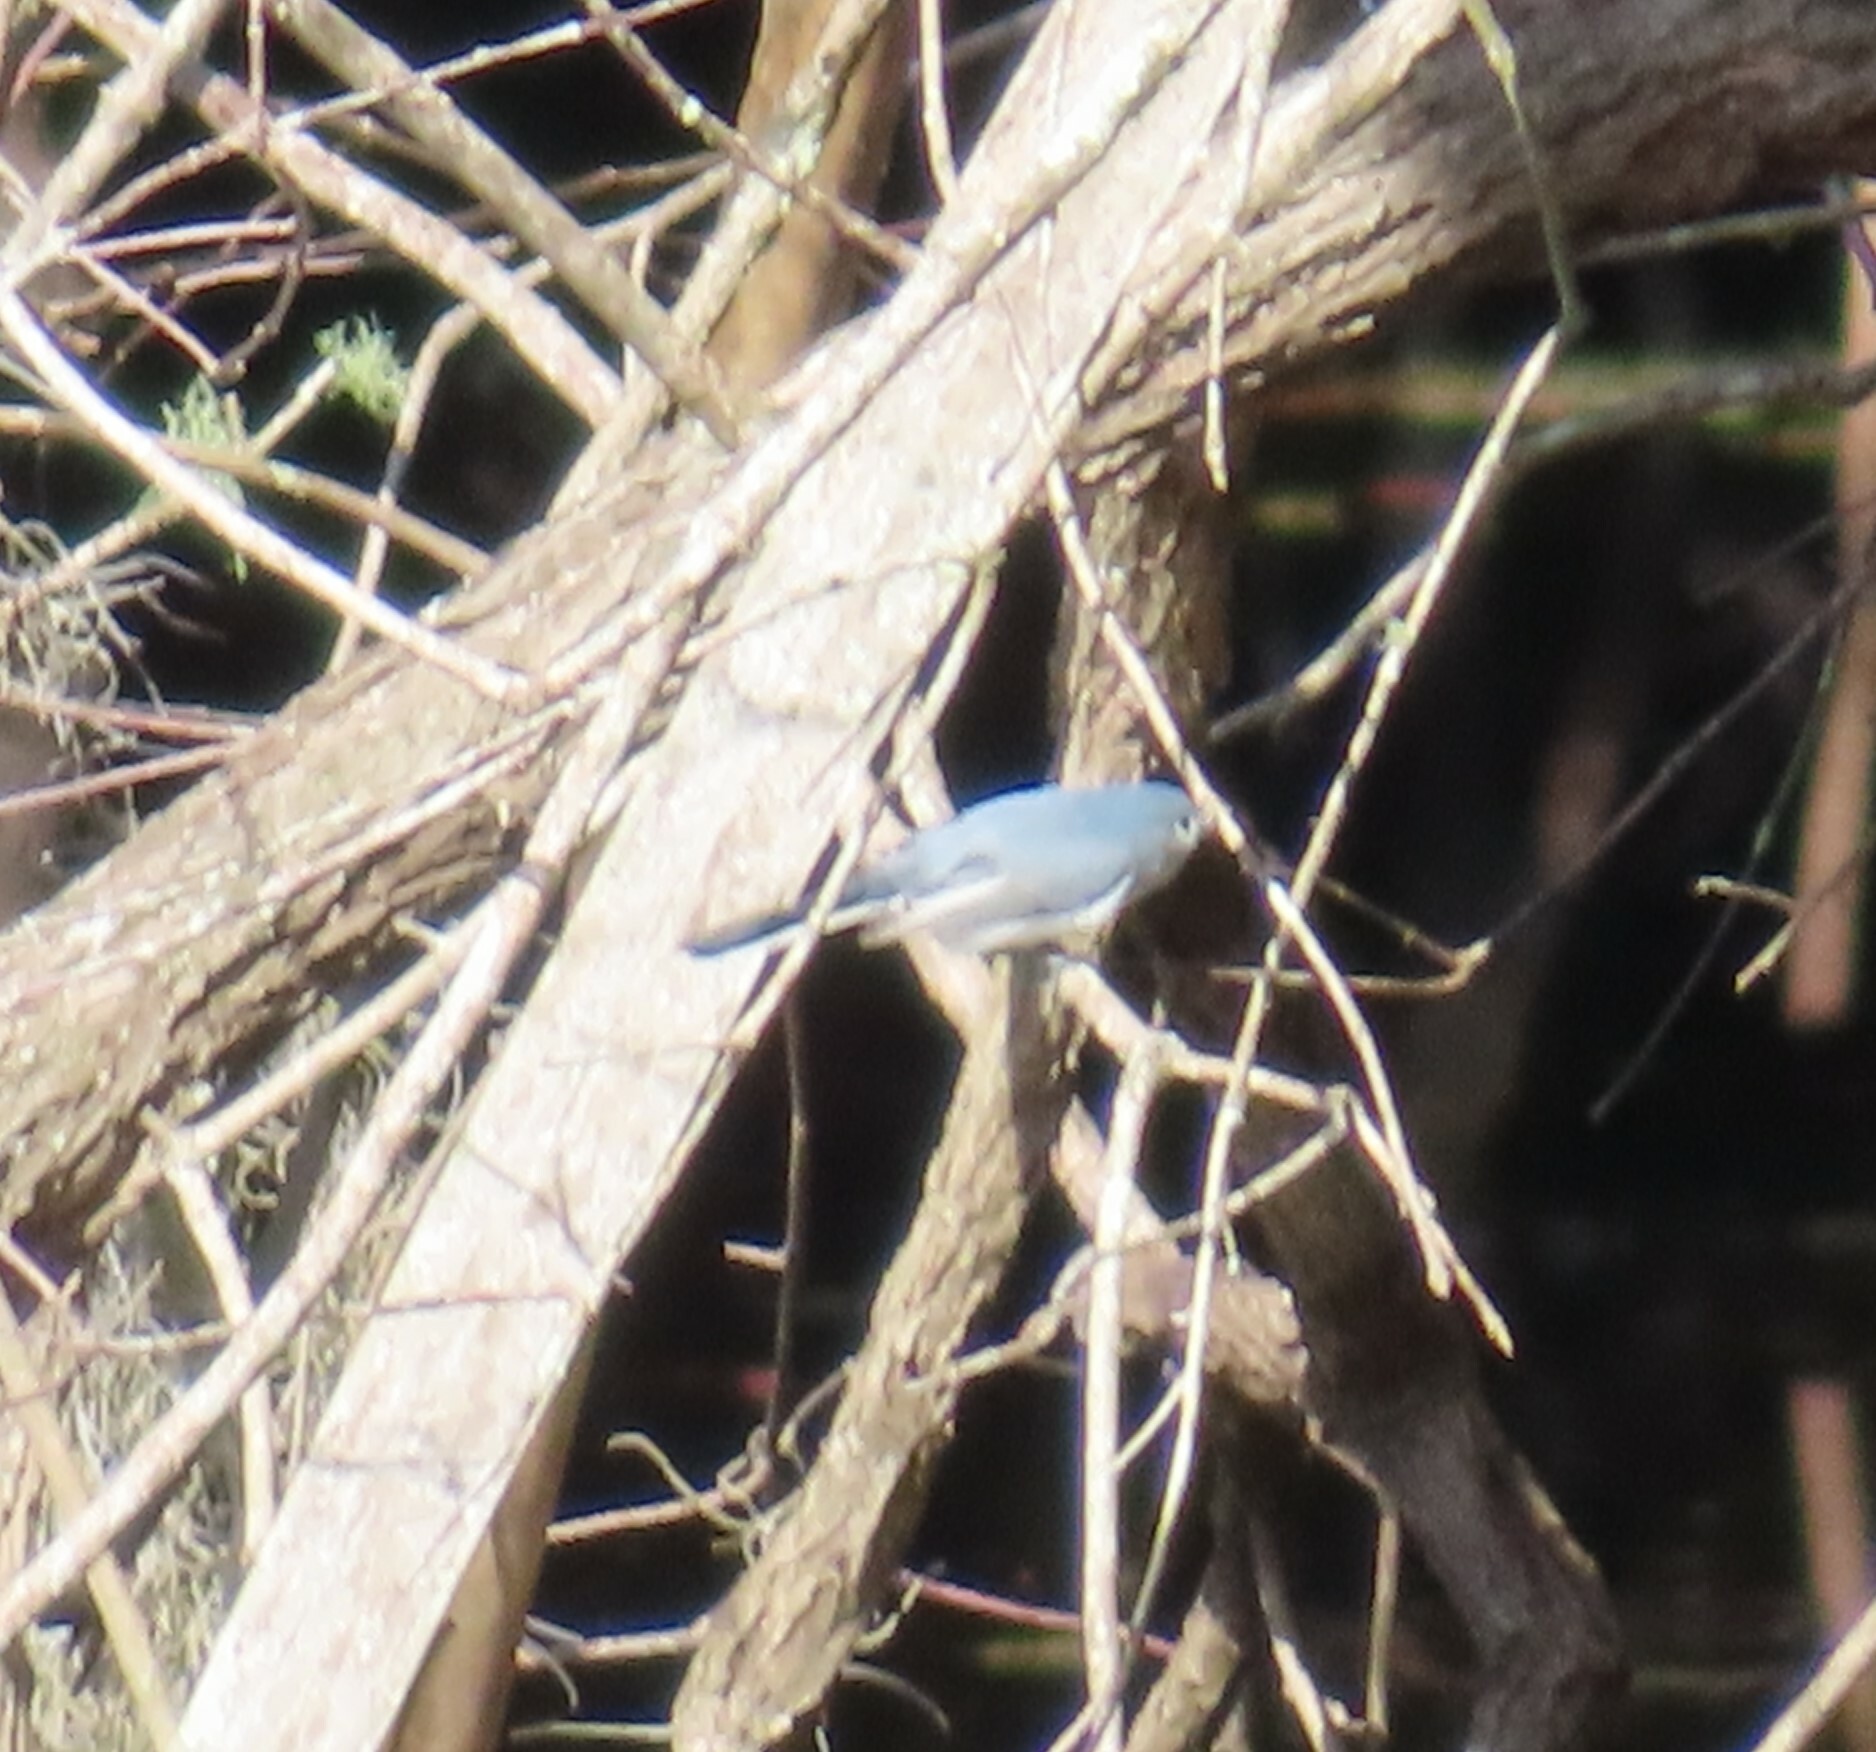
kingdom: Animalia
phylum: Chordata
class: Aves
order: Passeriformes
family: Polioptilidae
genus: Polioptila
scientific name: Polioptila caerulea
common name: Blue-gray gnatcatcher
